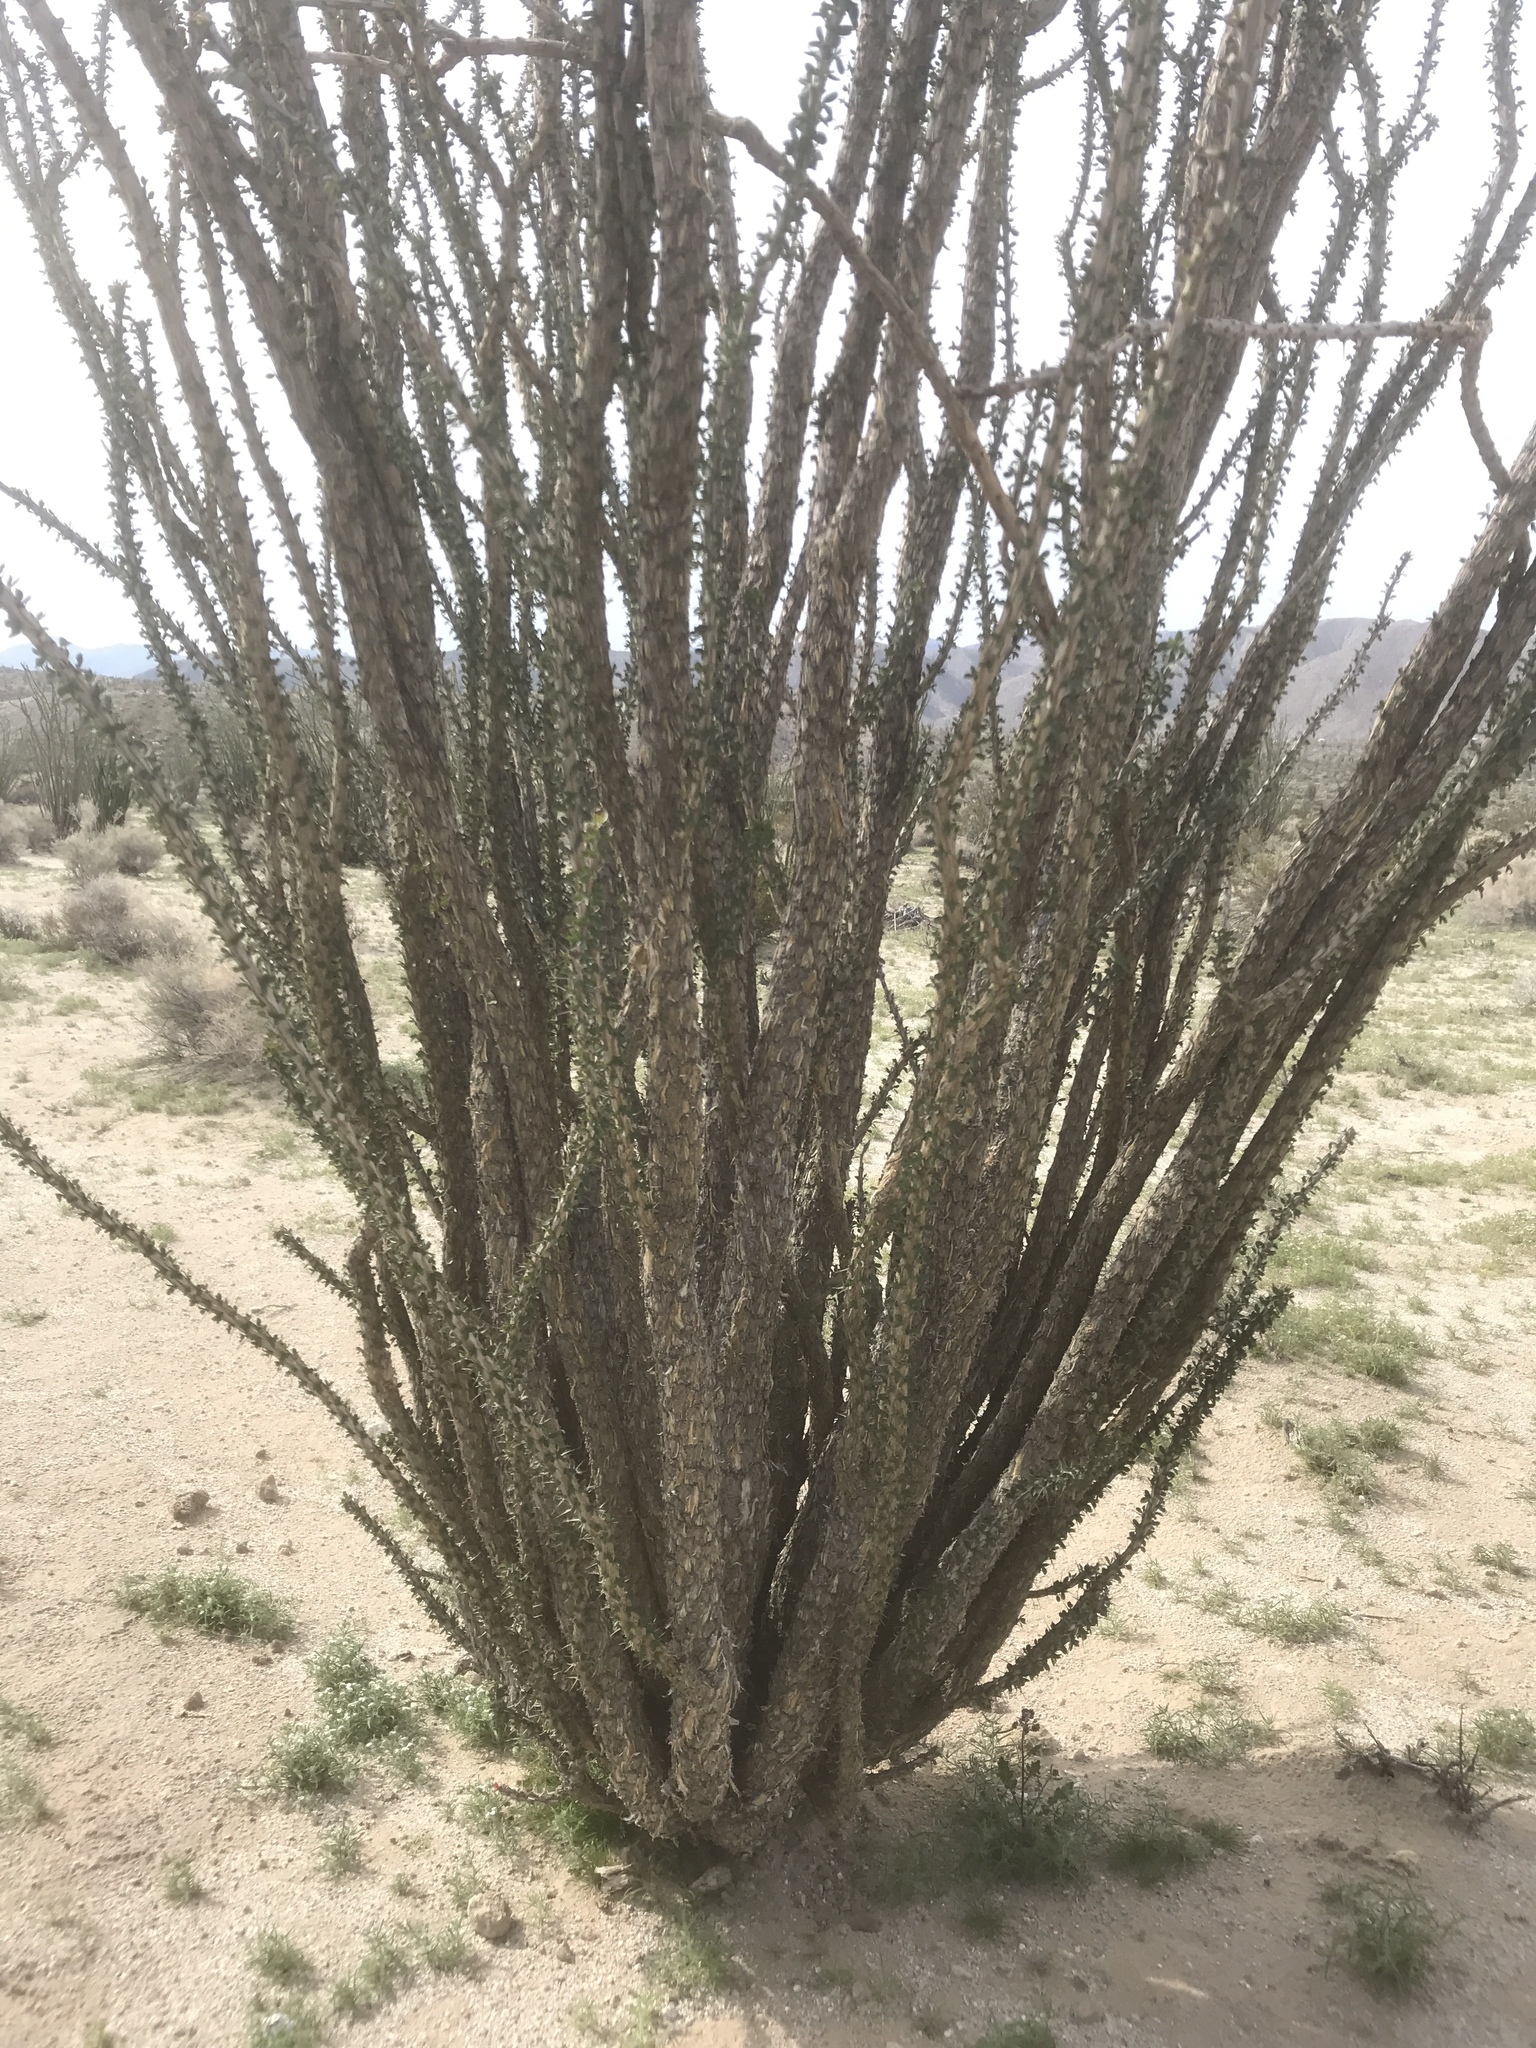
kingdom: Plantae
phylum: Tracheophyta
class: Magnoliopsida
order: Ericales
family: Fouquieriaceae
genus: Fouquieria
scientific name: Fouquieria splendens
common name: Vine-cactus
